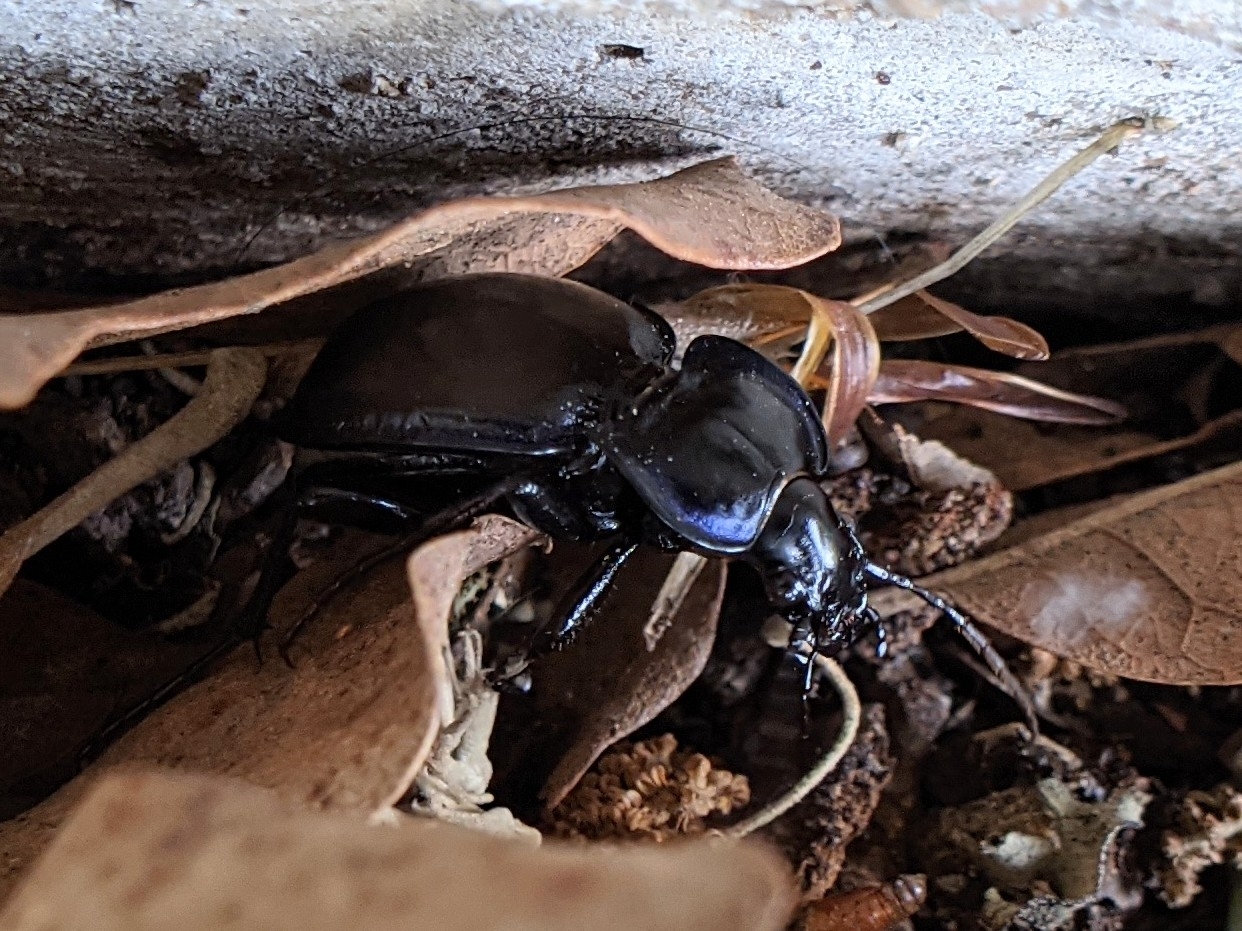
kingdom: Animalia
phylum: Arthropoda
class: Insecta
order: Coleoptera
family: Carabidae
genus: Carabus
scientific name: Carabus finitimus
